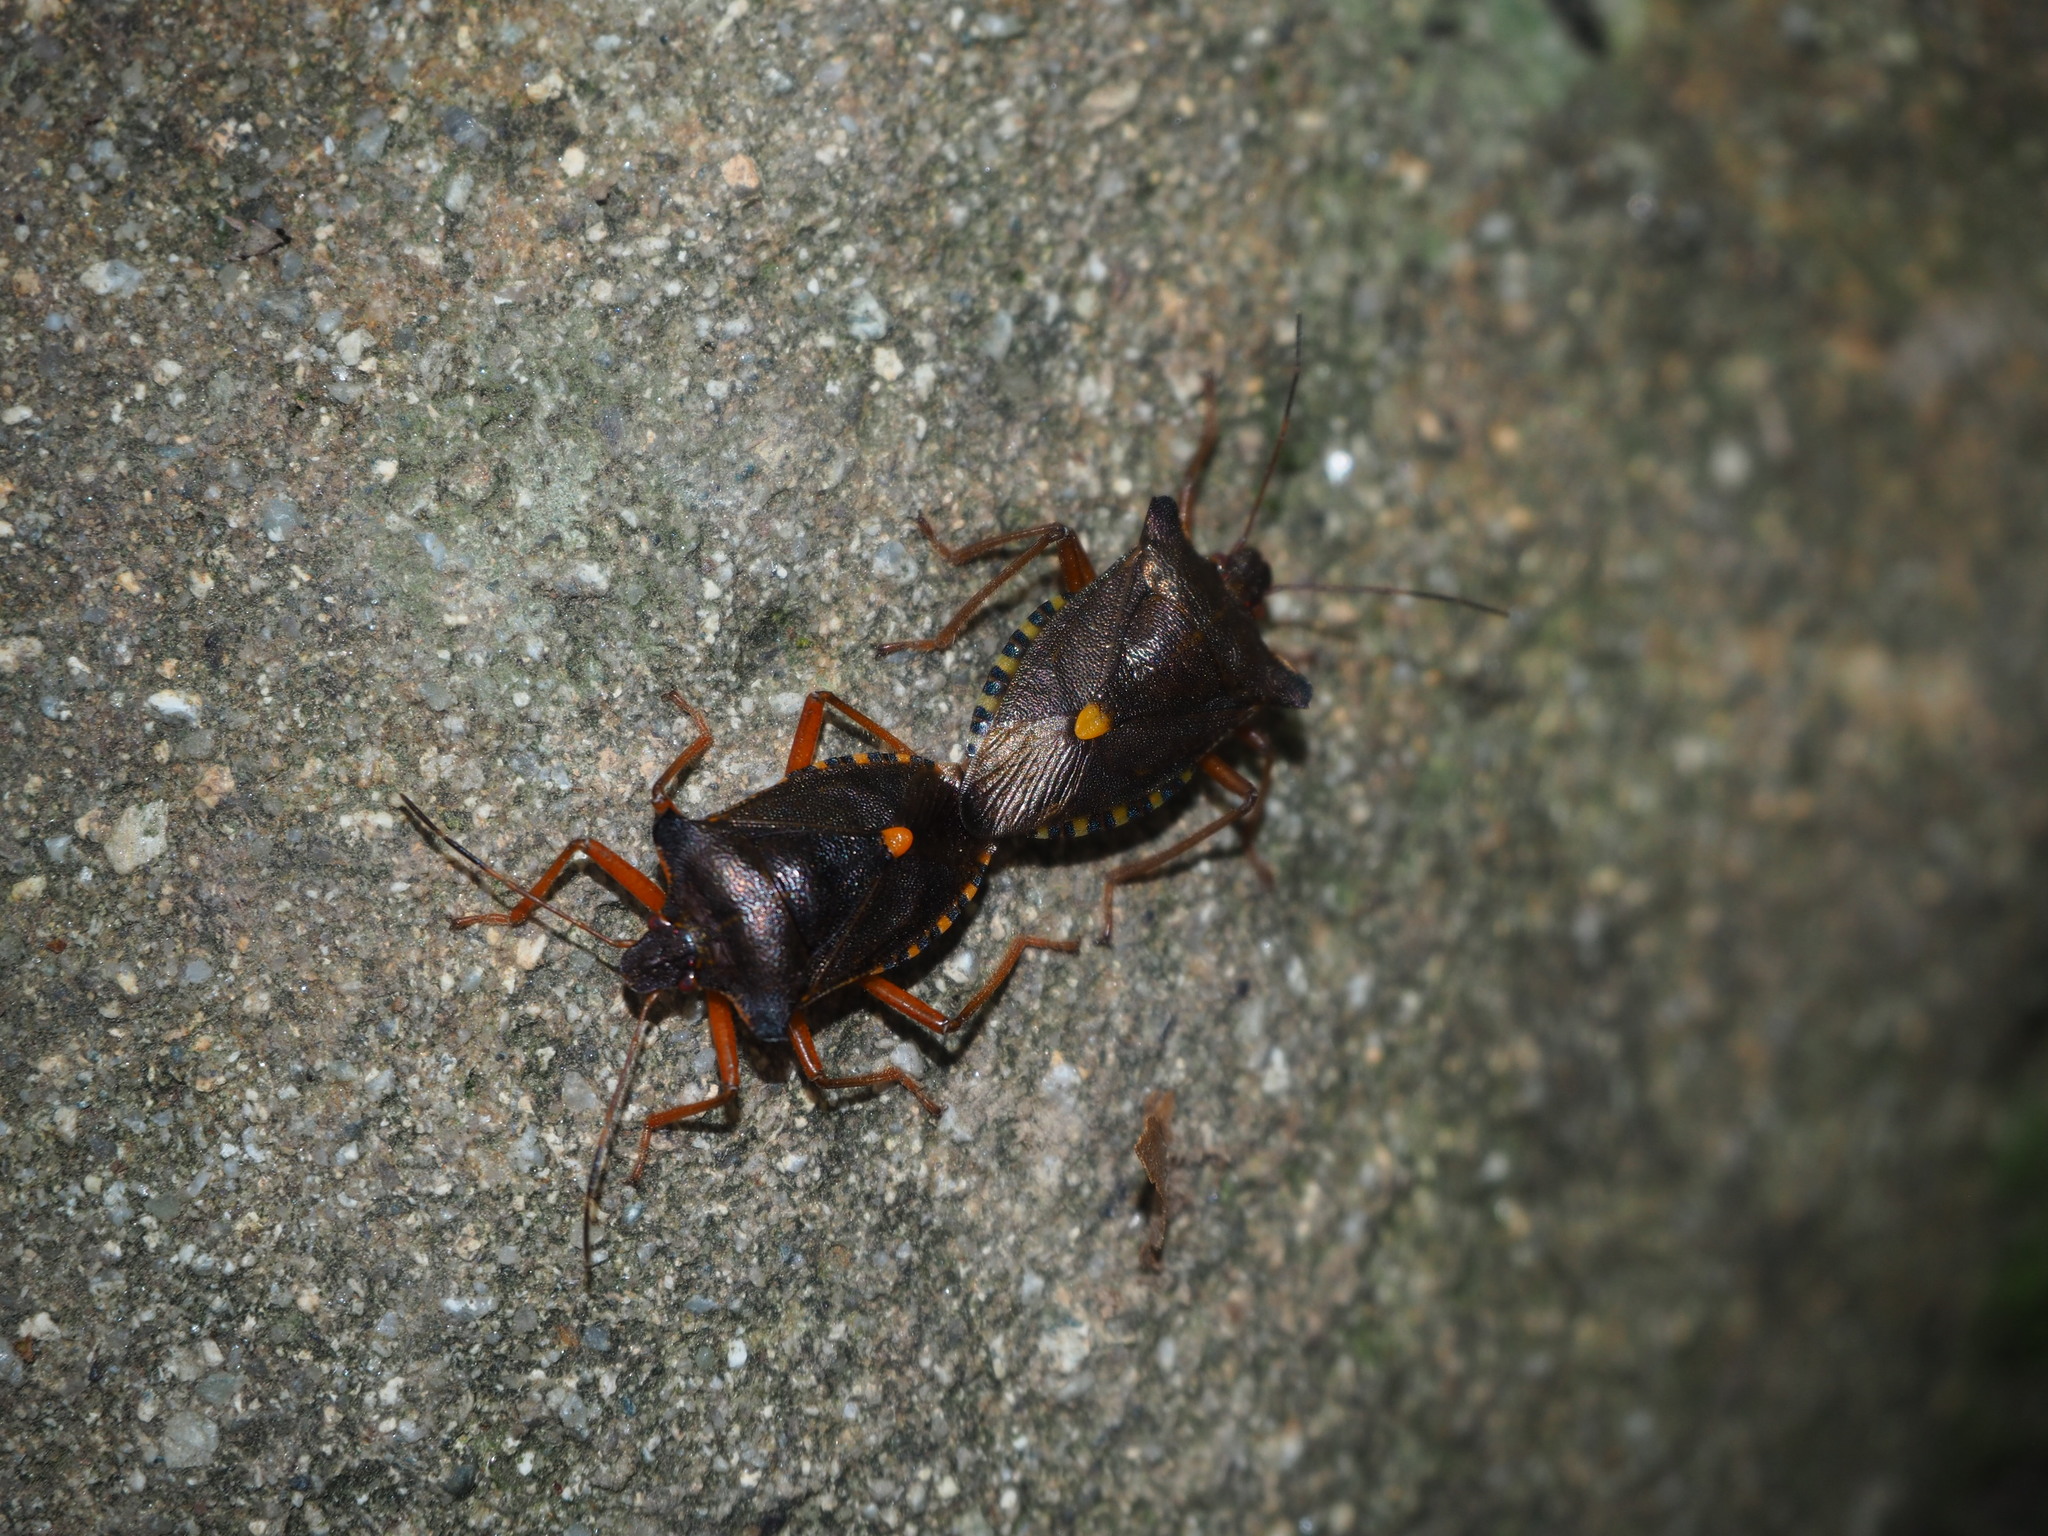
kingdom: Animalia
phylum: Arthropoda
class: Insecta
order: Hemiptera
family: Pentatomidae
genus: Pentatoma
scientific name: Pentatoma rufipes
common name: Forest bug
